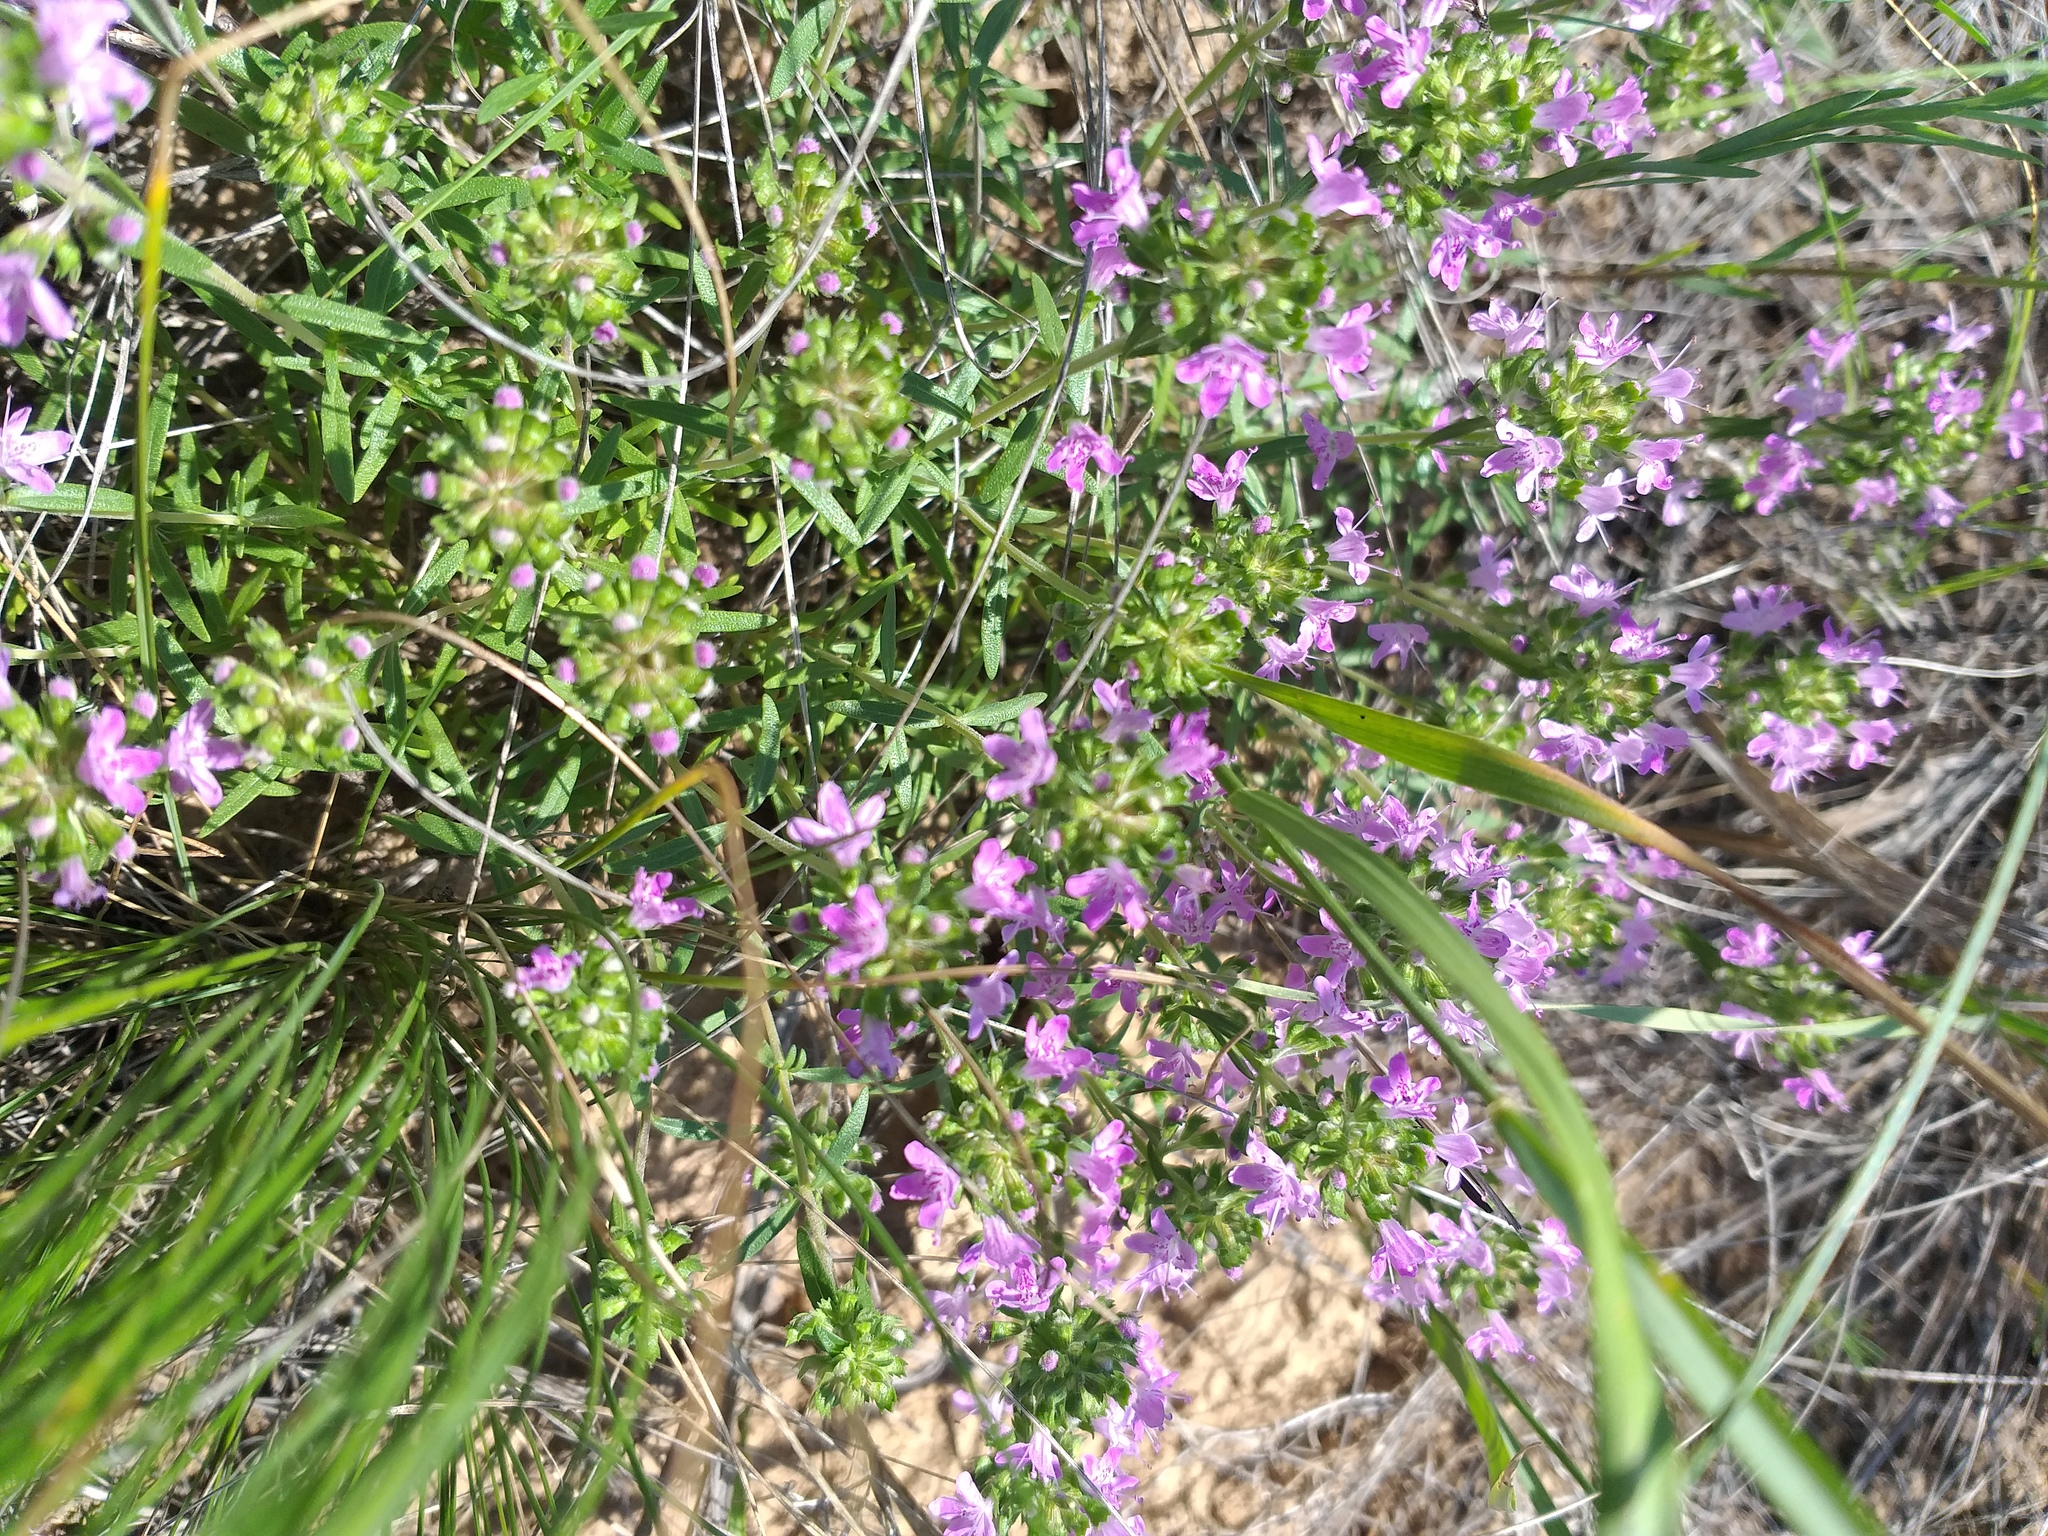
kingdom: Plantae
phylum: Tracheophyta
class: Magnoliopsida
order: Lamiales
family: Lamiaceae
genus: Thymus
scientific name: Thymus kirgisorum
